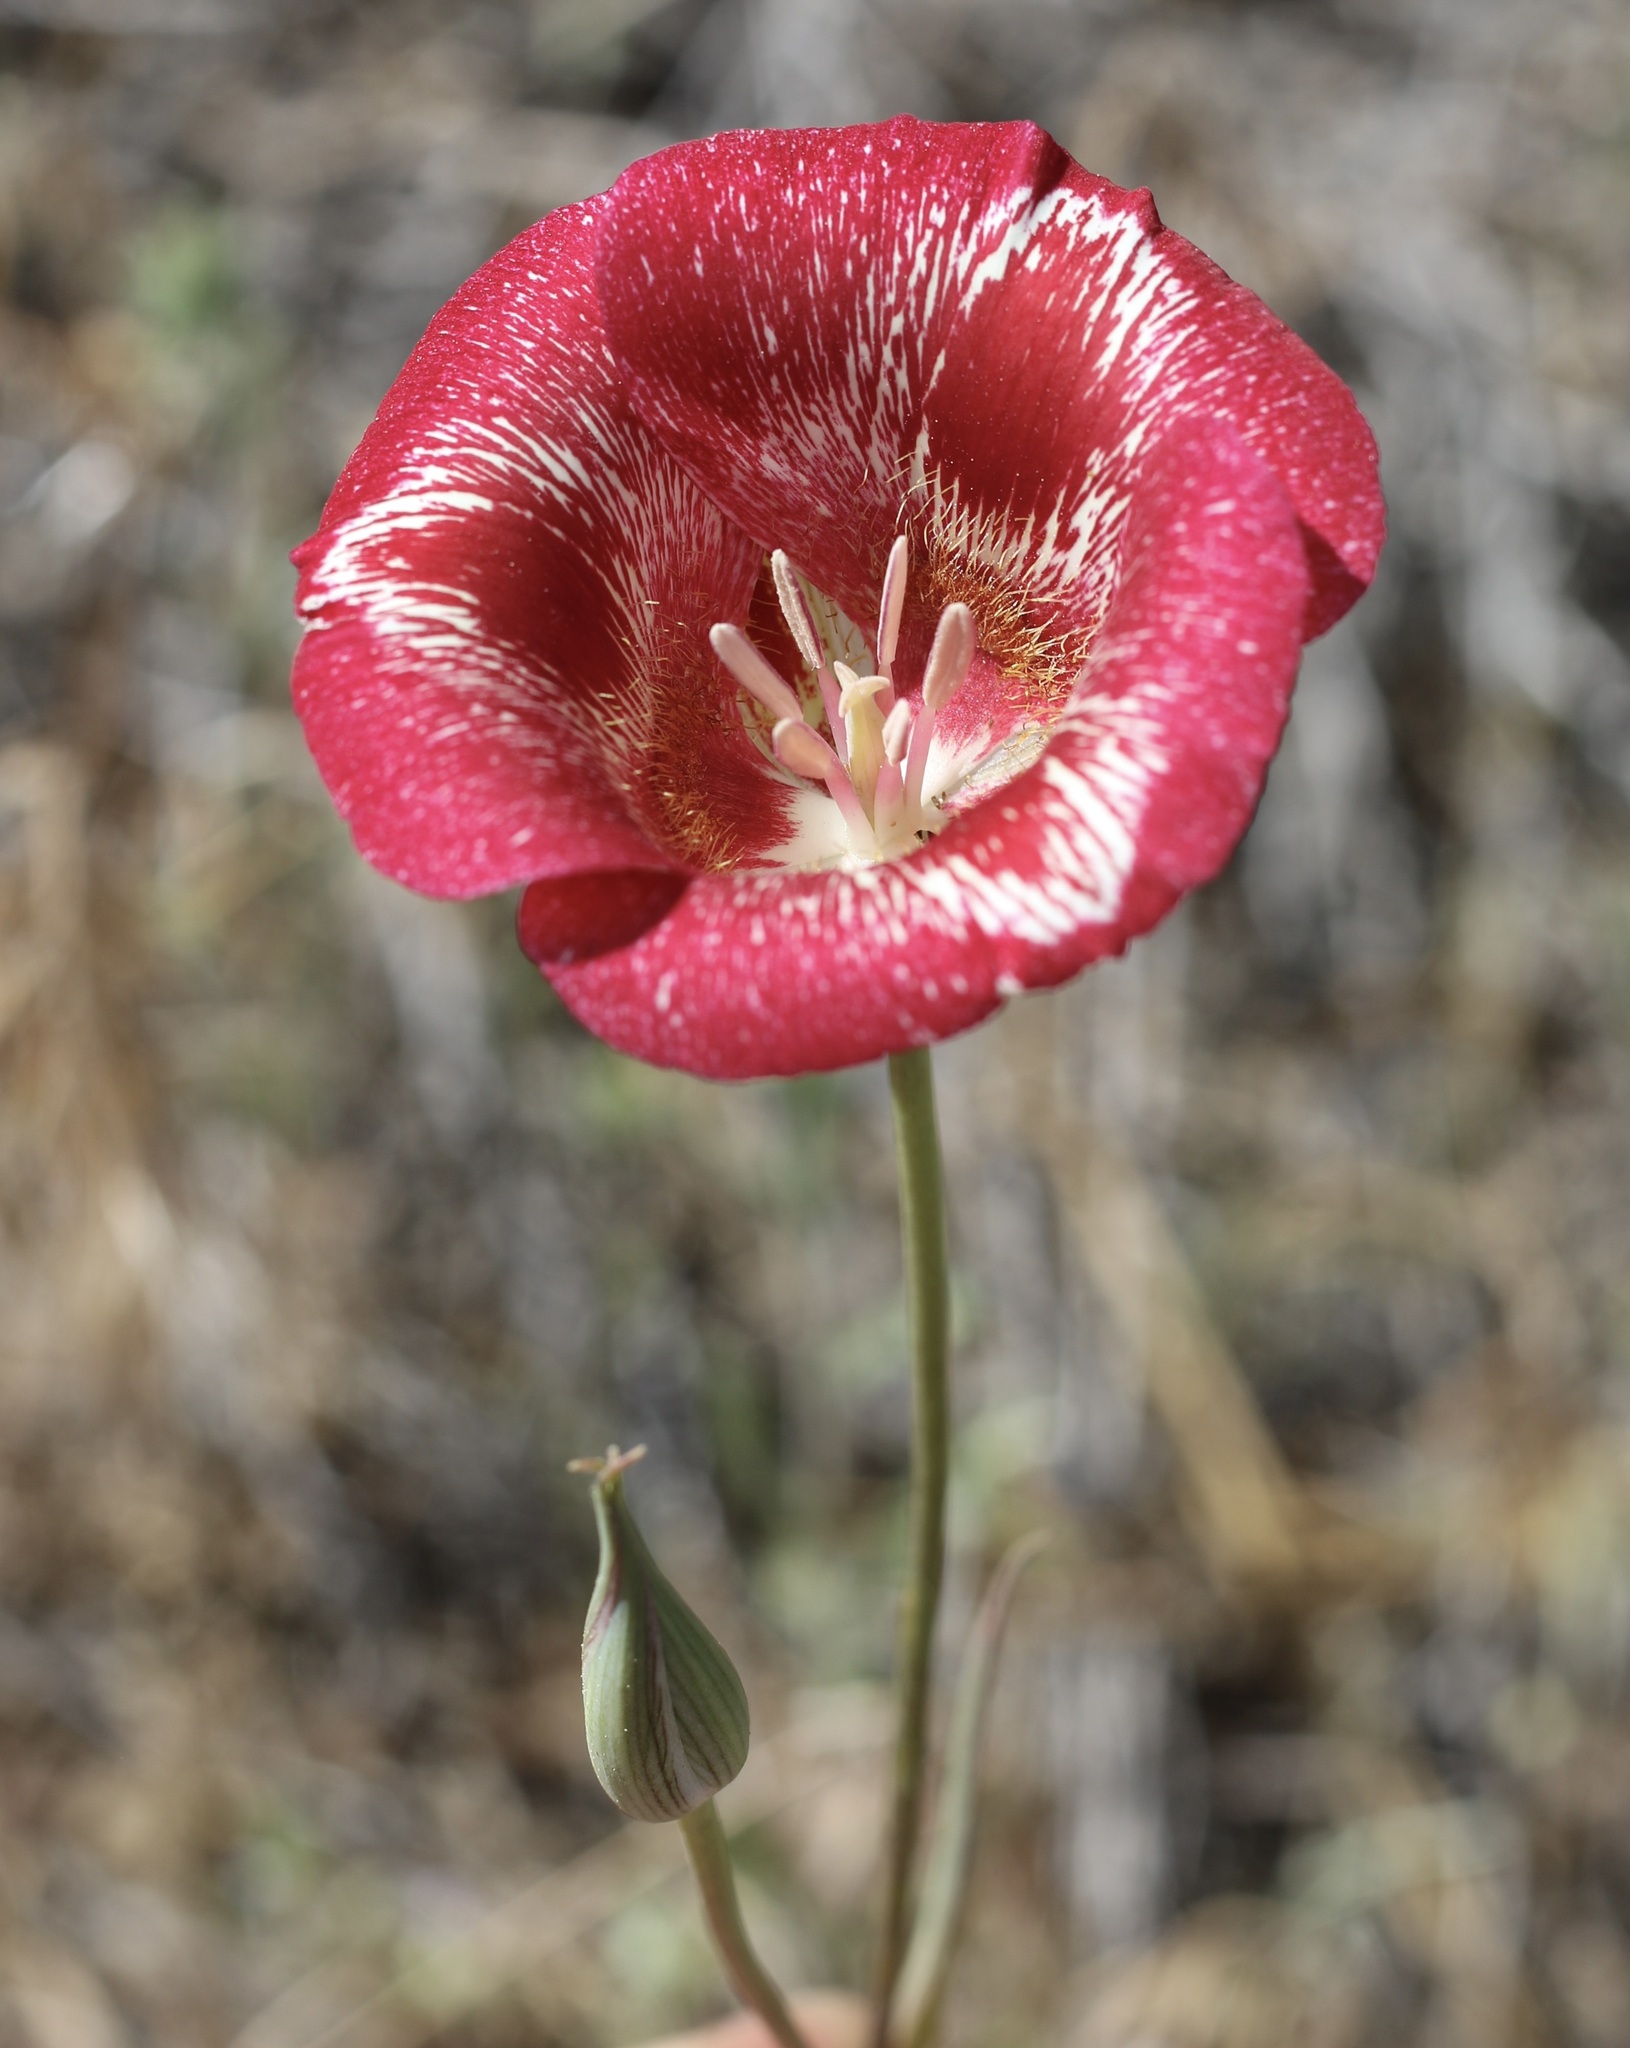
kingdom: Plantae
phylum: Tracheophyta
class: Liliopsida
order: Liliales
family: Liliaceae
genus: Calochortus
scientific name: Calochortus venustus
